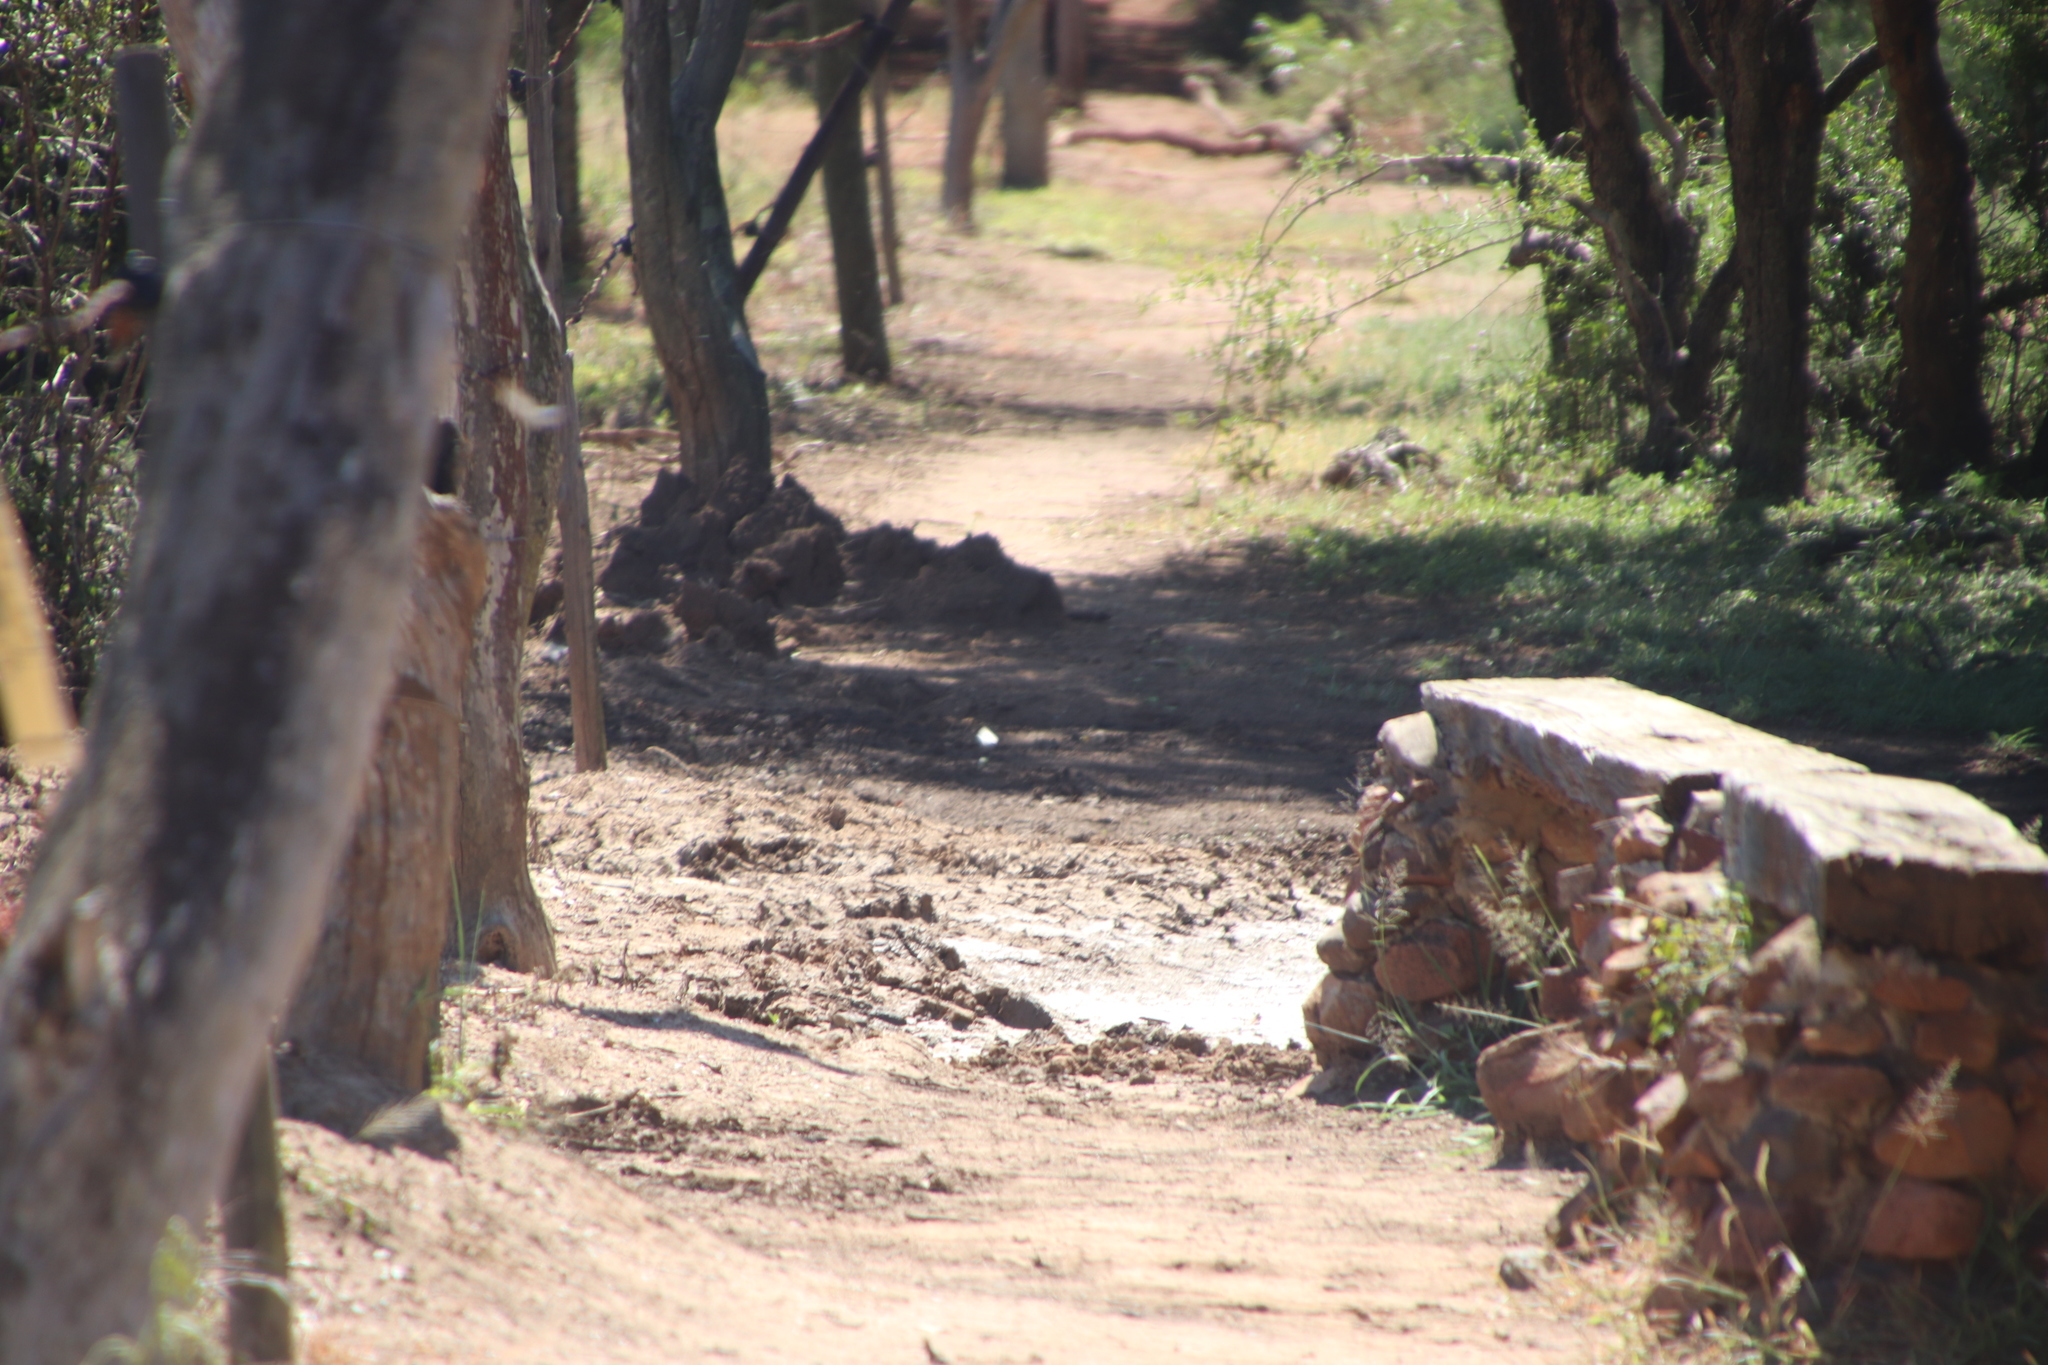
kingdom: Animalia
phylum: Chordata
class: Mammalia
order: Perissodactyla
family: Rhinocerotidae
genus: Ceratotherium
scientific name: Ceratotherium simum
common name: White rhinoceros
